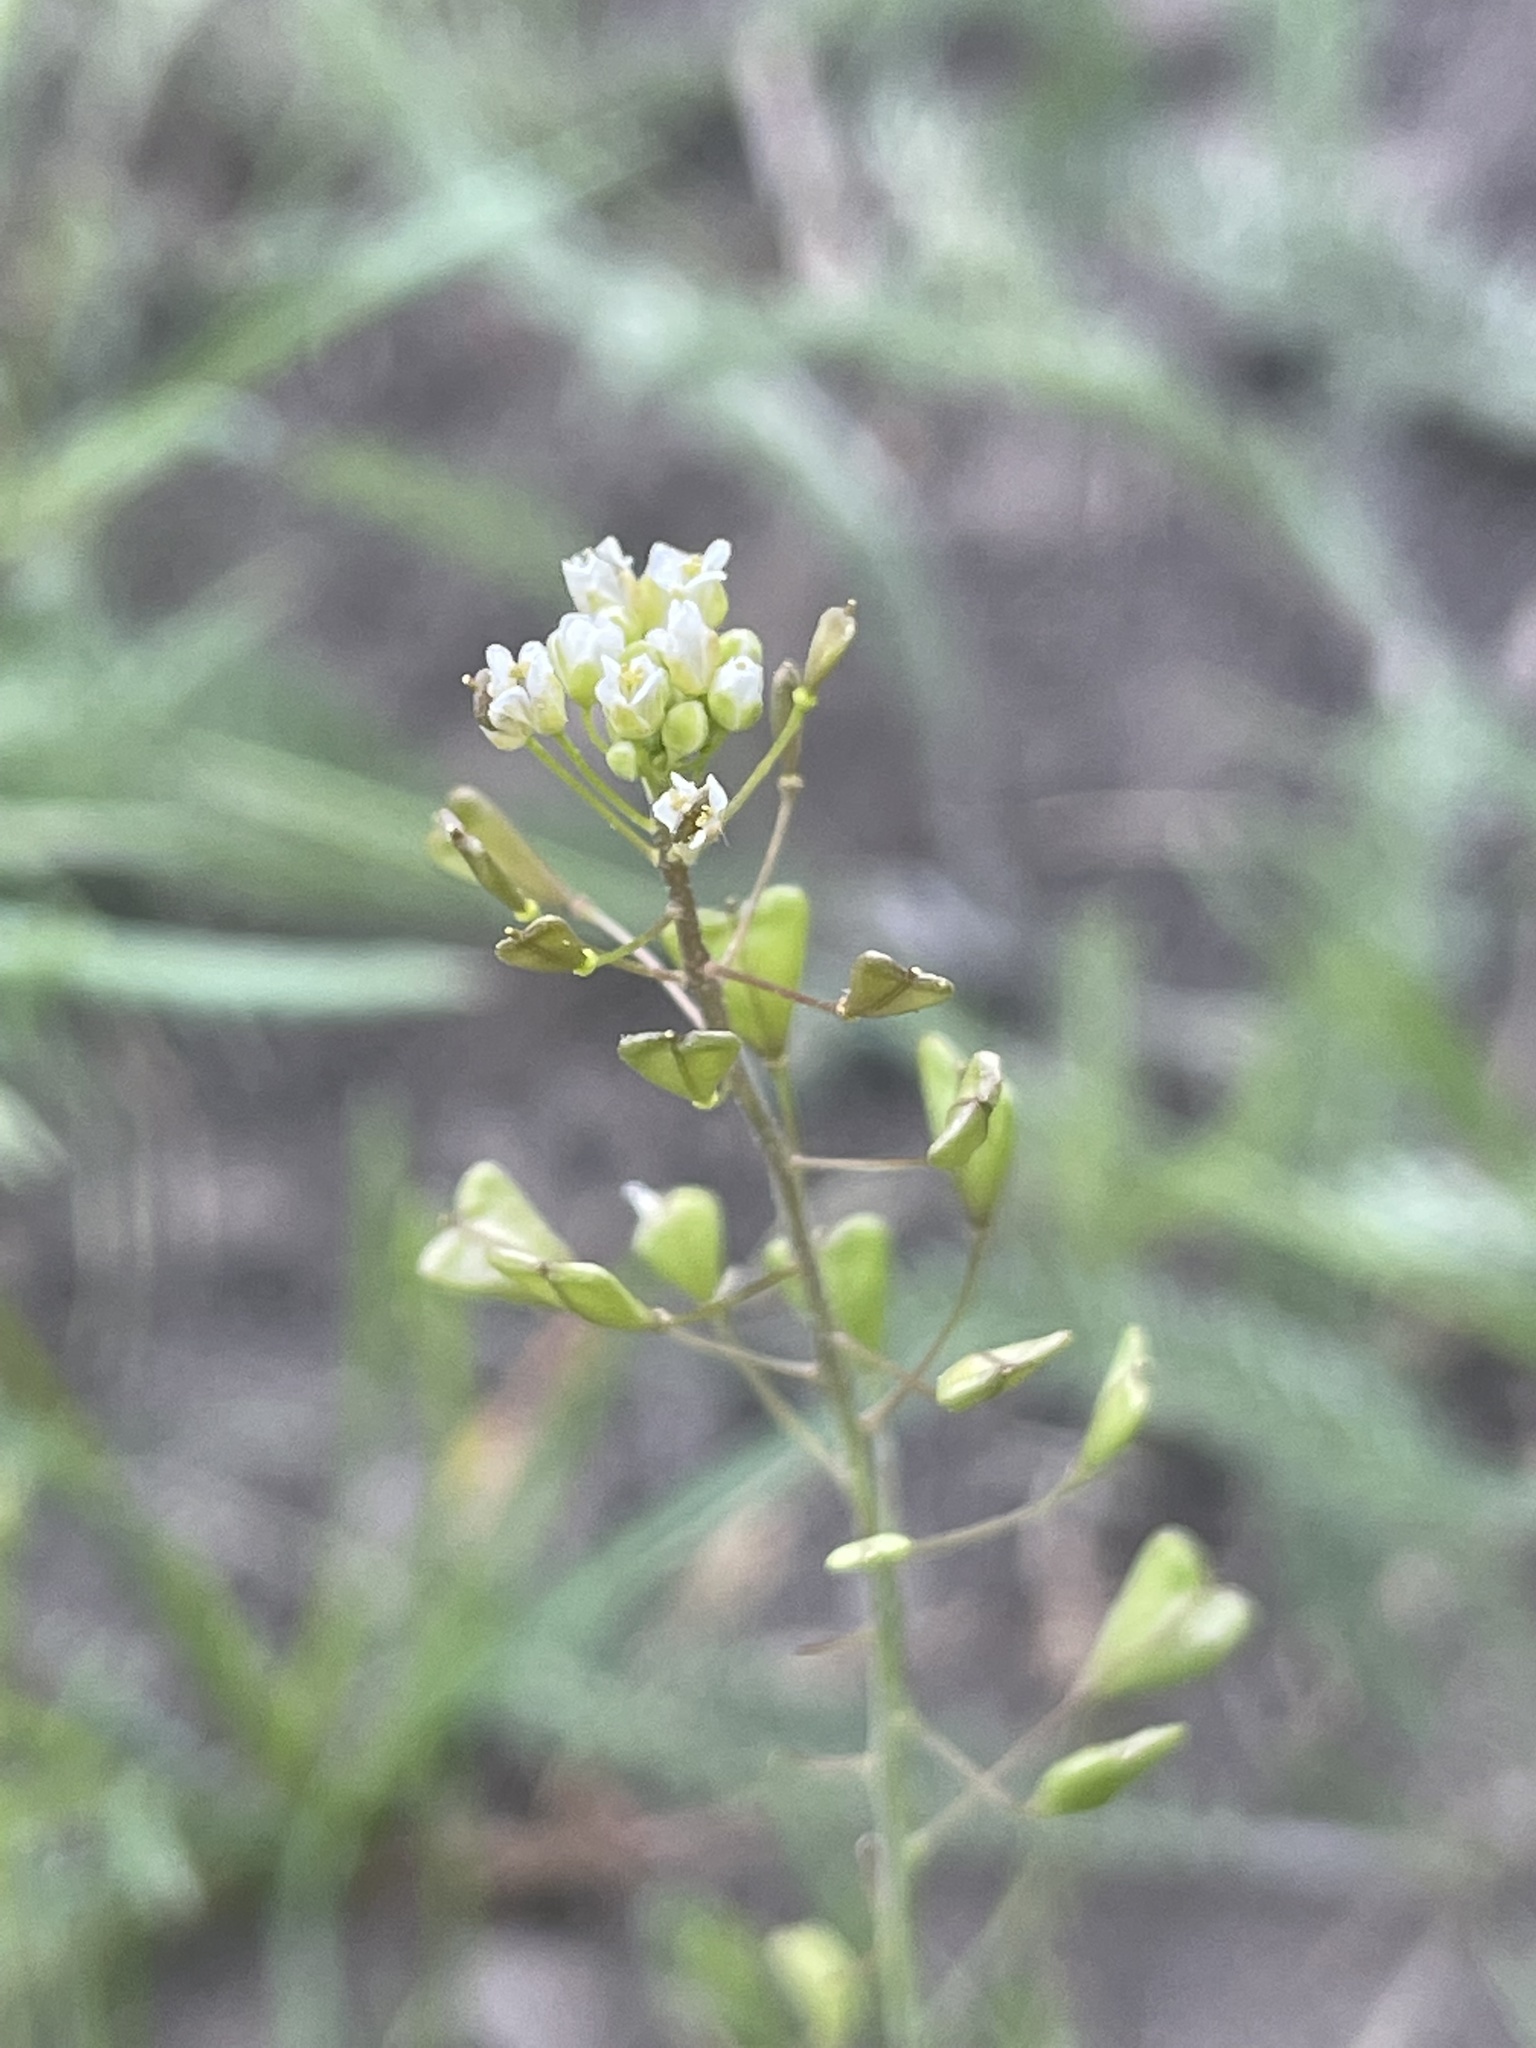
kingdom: Plantae
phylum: Tracheophyta
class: Magnoliopsida
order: Brassicales
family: Brassicaceae
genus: Capsella
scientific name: Capsella bursa-pastoris
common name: Shepherd's purse
